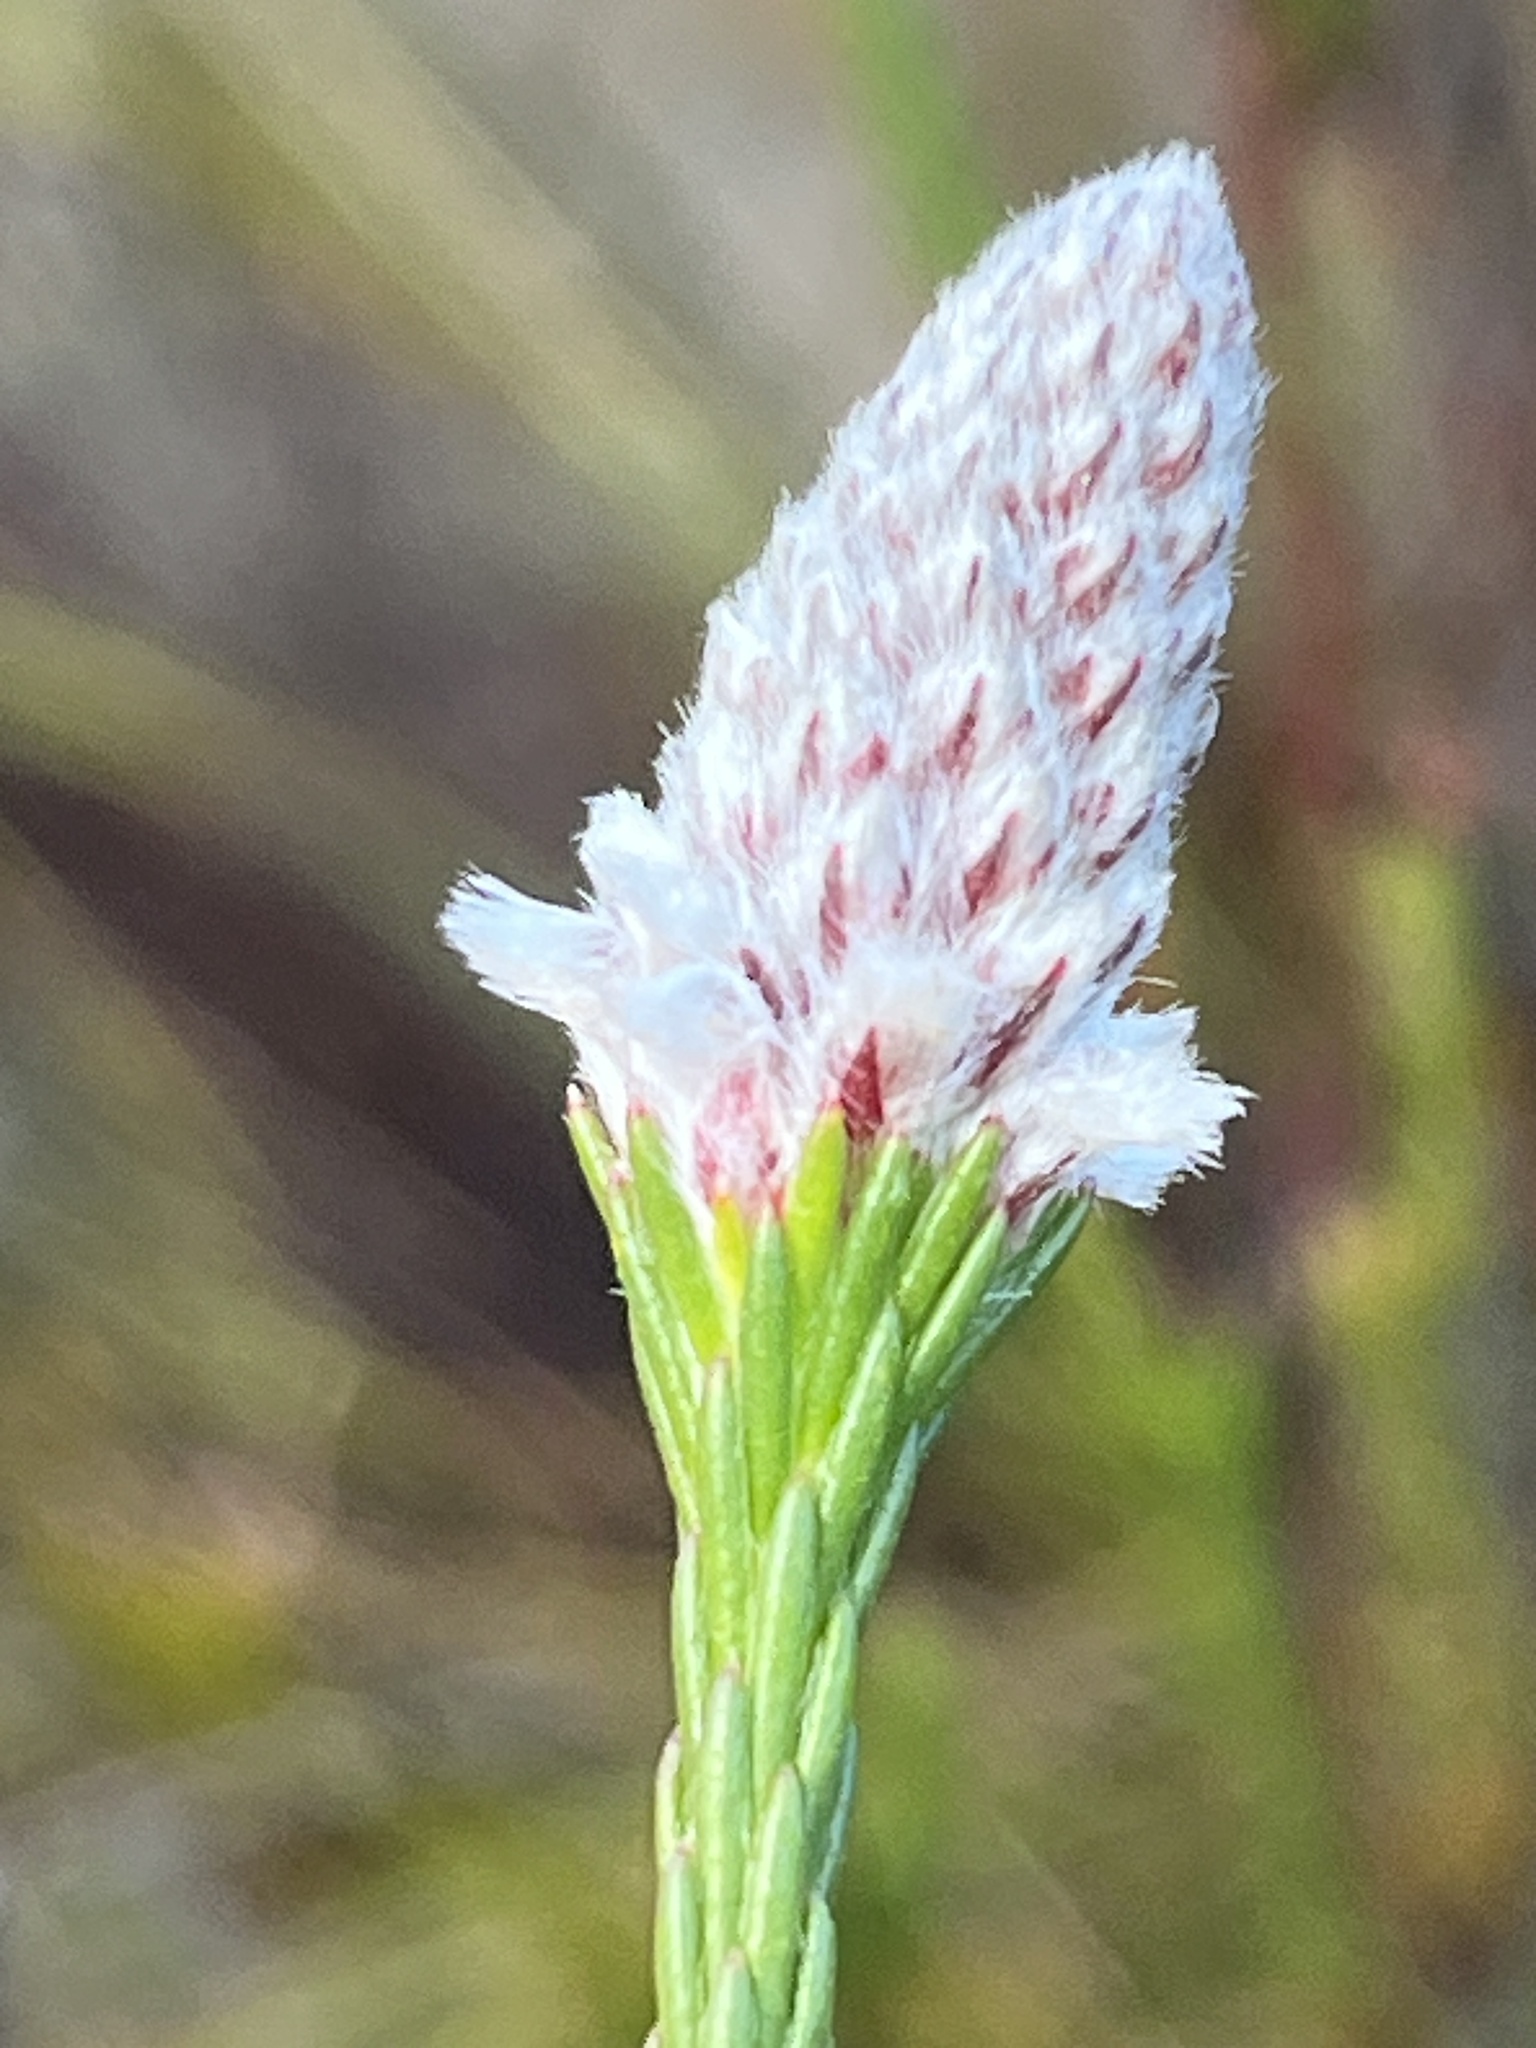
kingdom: Plantae
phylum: Tracheophyta
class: Magnoliopsida
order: Proteales
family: Proteaceae
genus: Spatalla
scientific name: Spatalla ericoides
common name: Erica-leaf spoon
